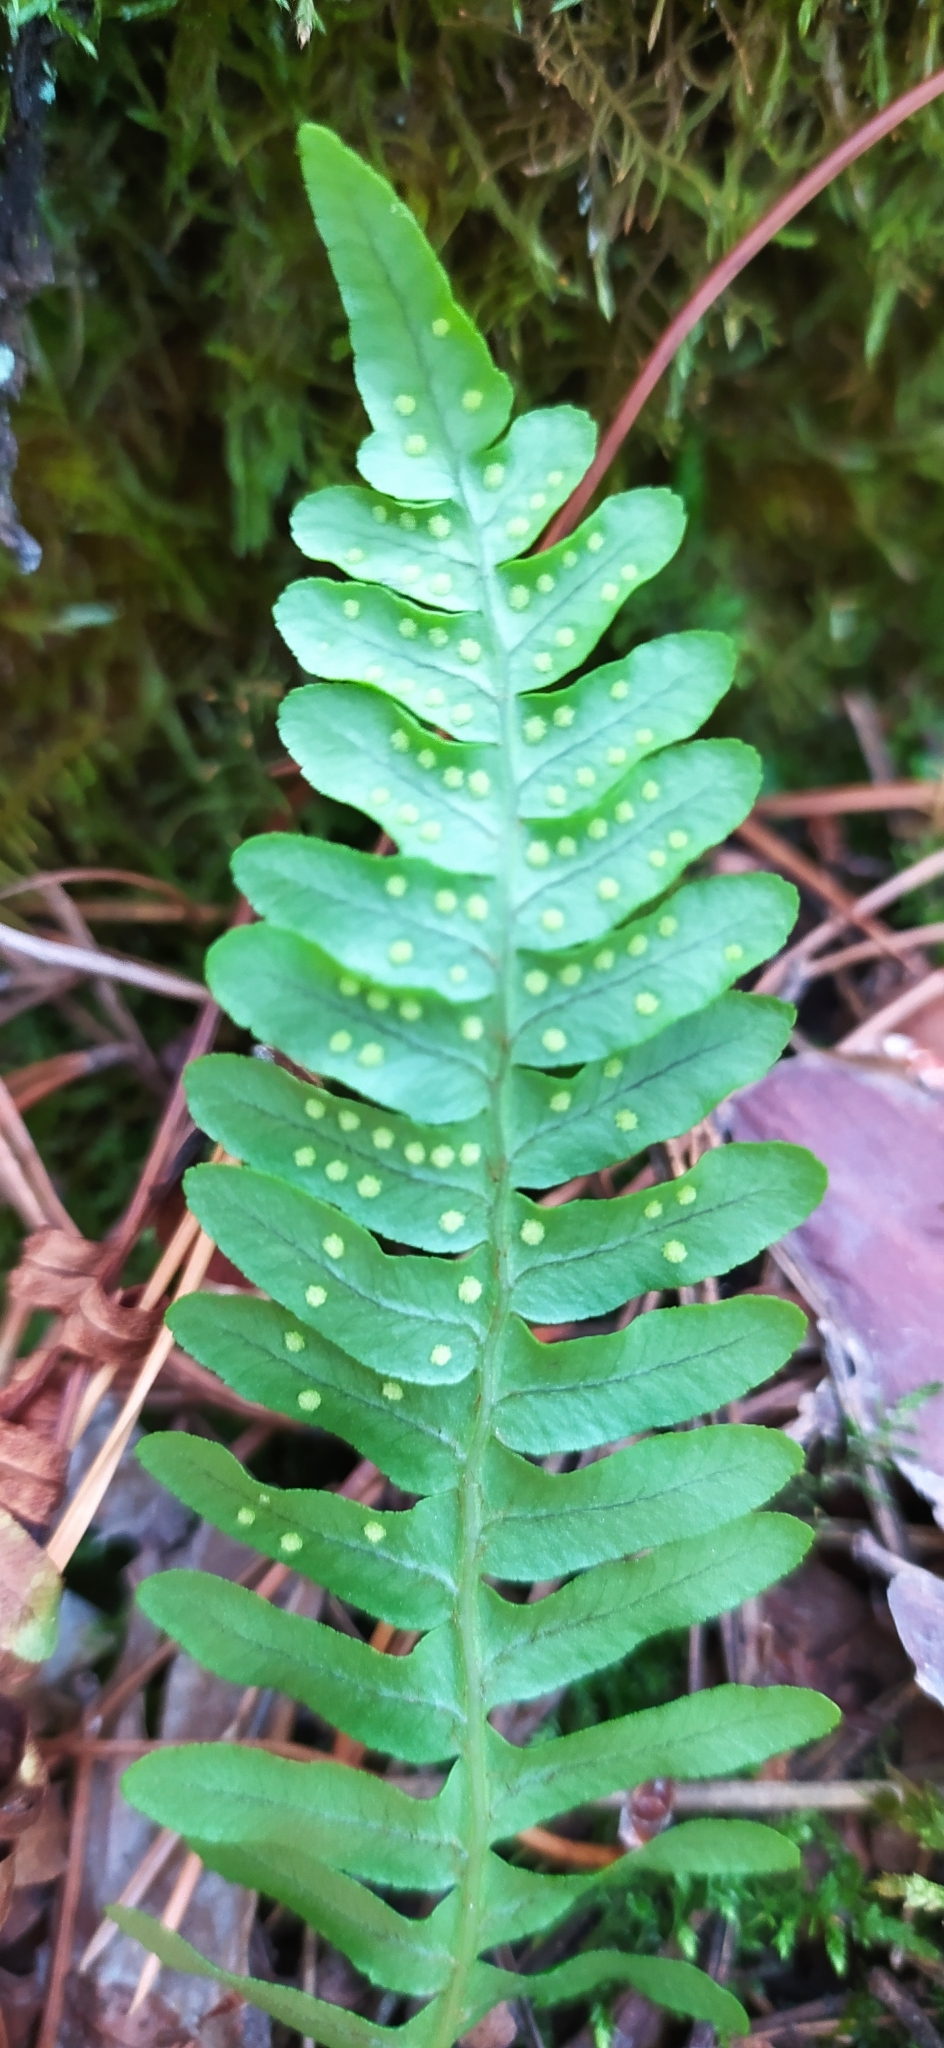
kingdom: Plantae
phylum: Tracheophyta
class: Polypodiopsida
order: Polypodiales
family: Polypodiaceae
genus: Polypodium
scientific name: Polypodium vulgare
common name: Common polypody
